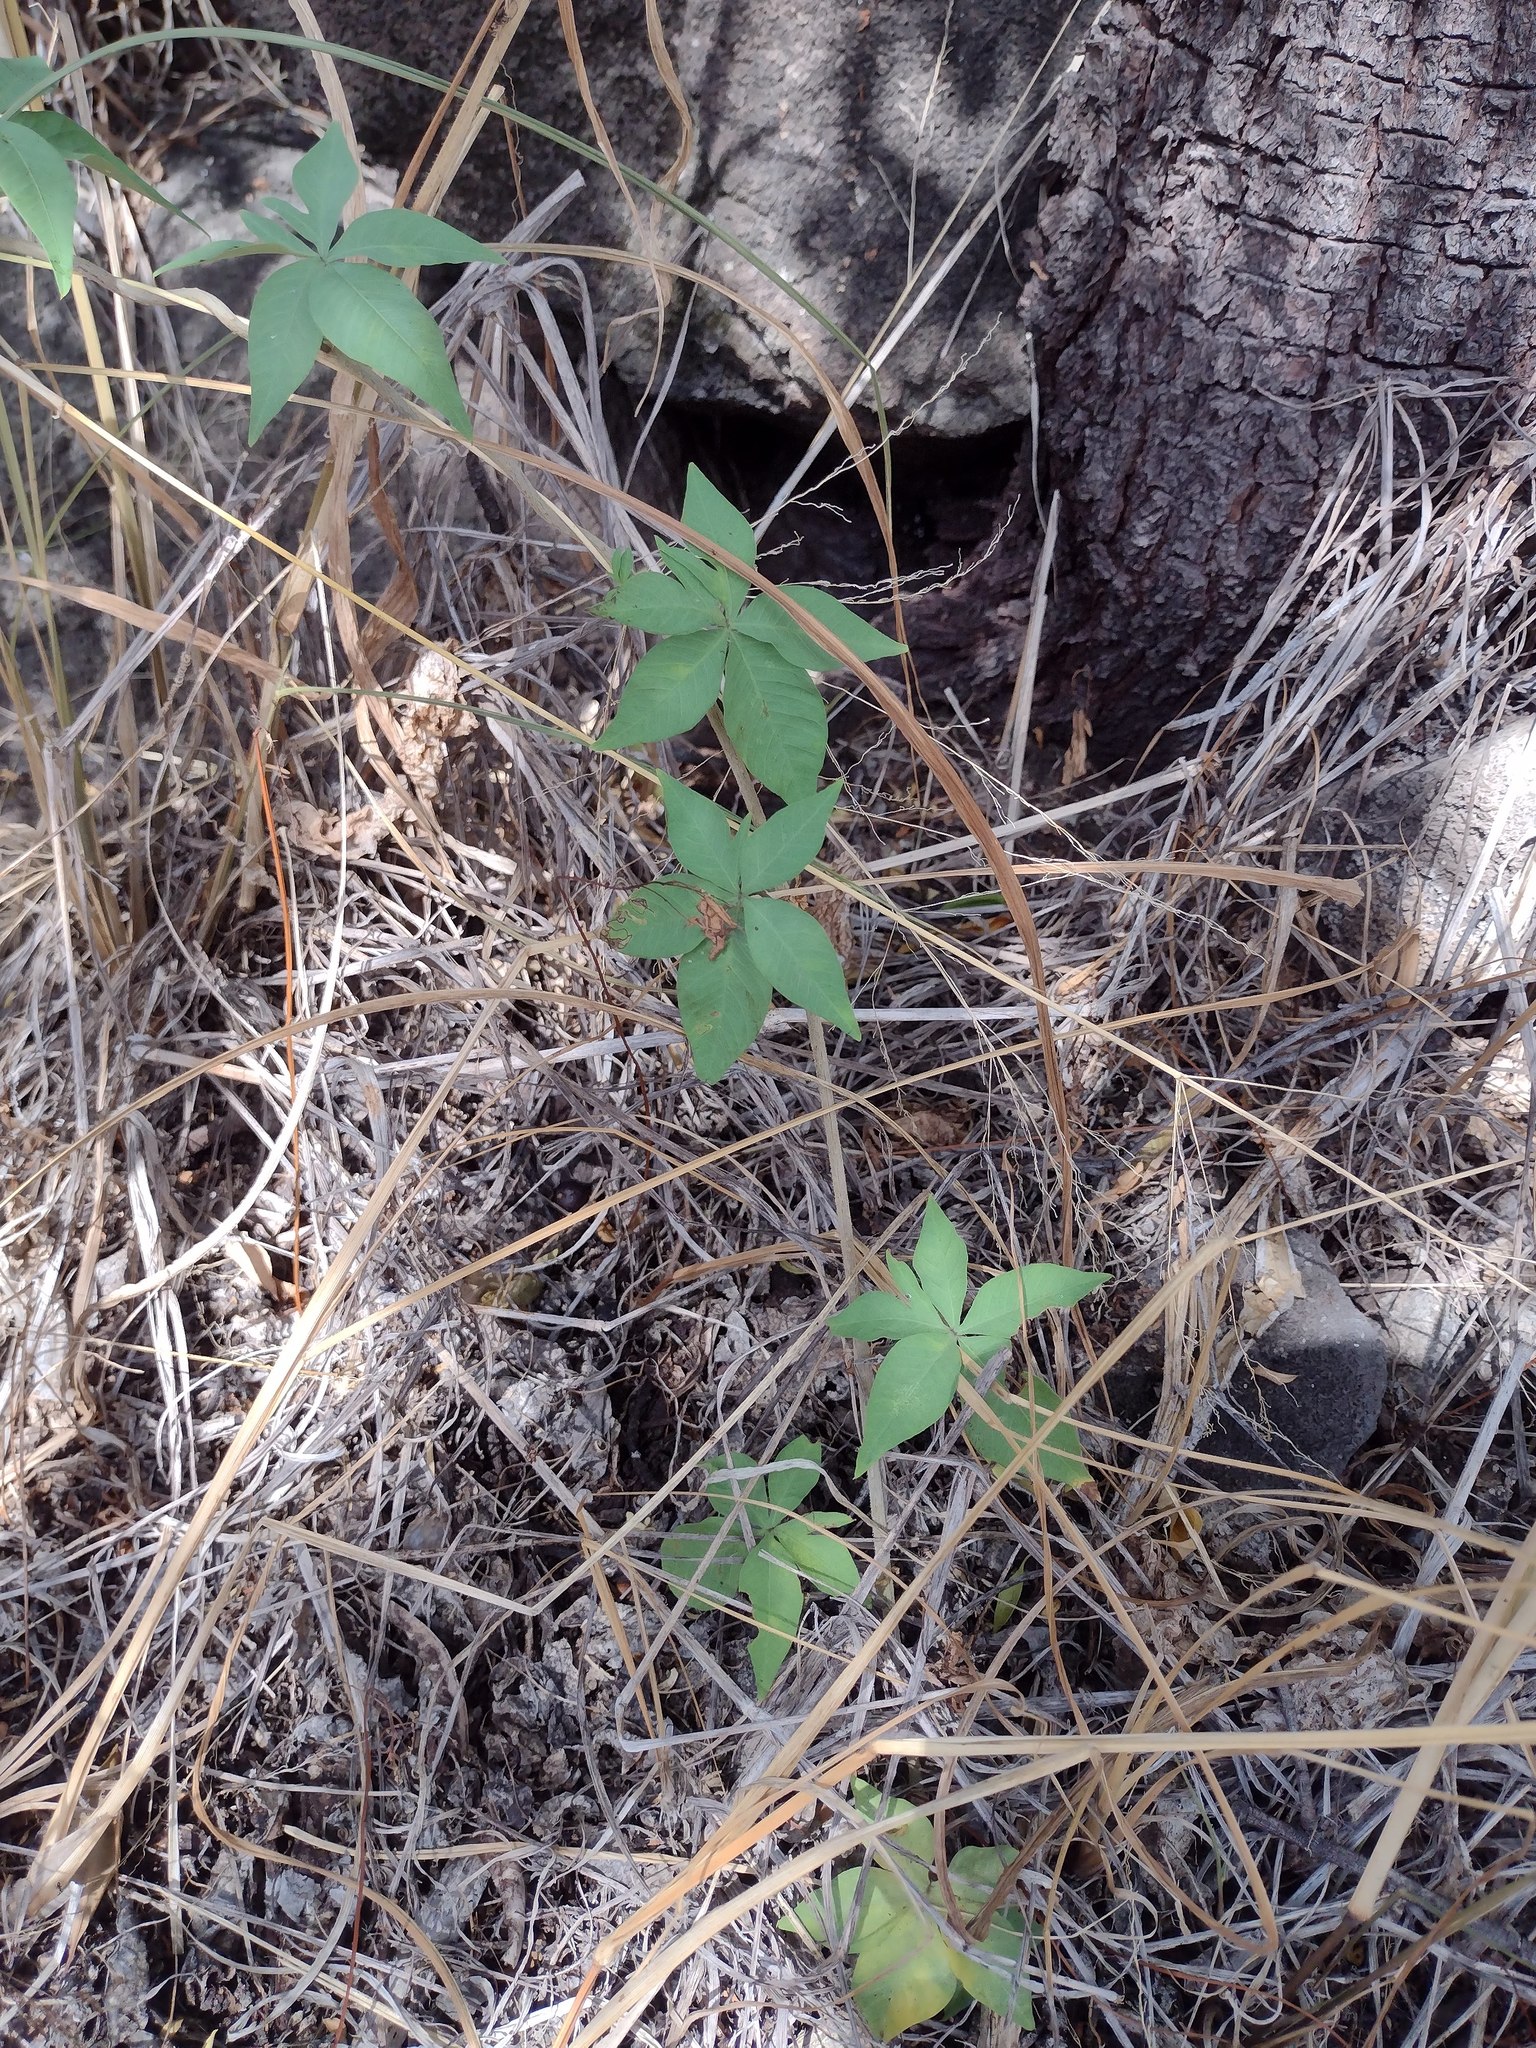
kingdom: Plantae
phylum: Tracheophyta
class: Magnoliopsida
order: Solanales
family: Convolvulaceae
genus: Ipomoea
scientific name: Ipomoea cairica
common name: Mile a minute vine
